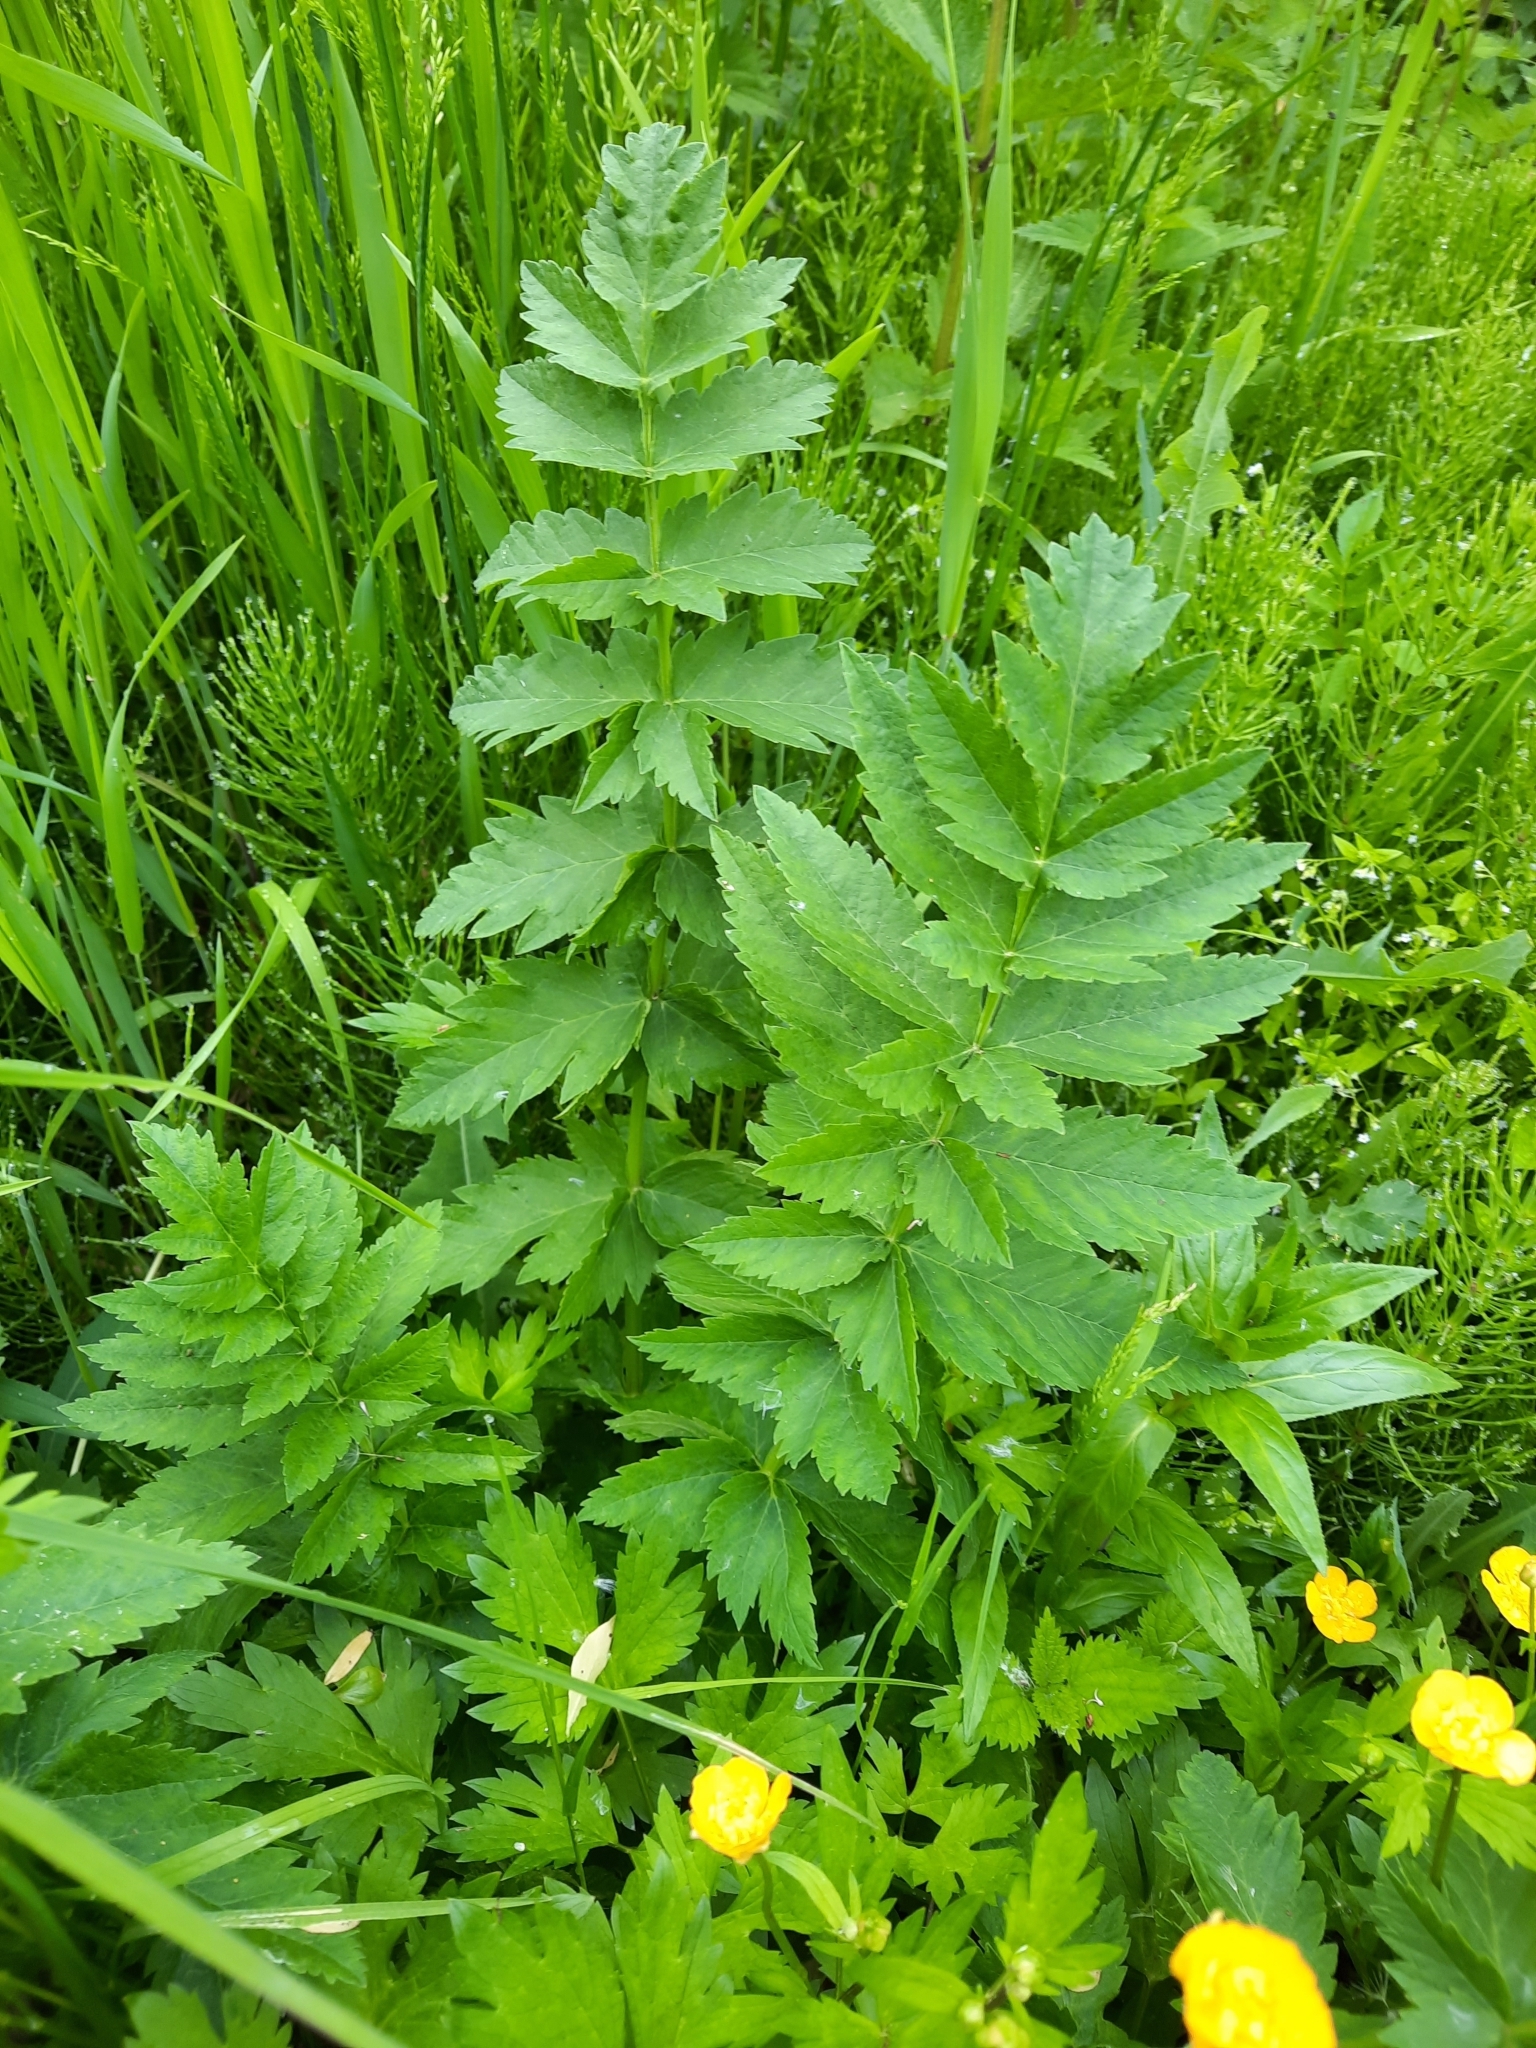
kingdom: Plantae
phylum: Tracheophyta
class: Magnoliopsida
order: Apiales
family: Apiaceae
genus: Pastinaca
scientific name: Pastinaca sativa
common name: Wild parsnip
